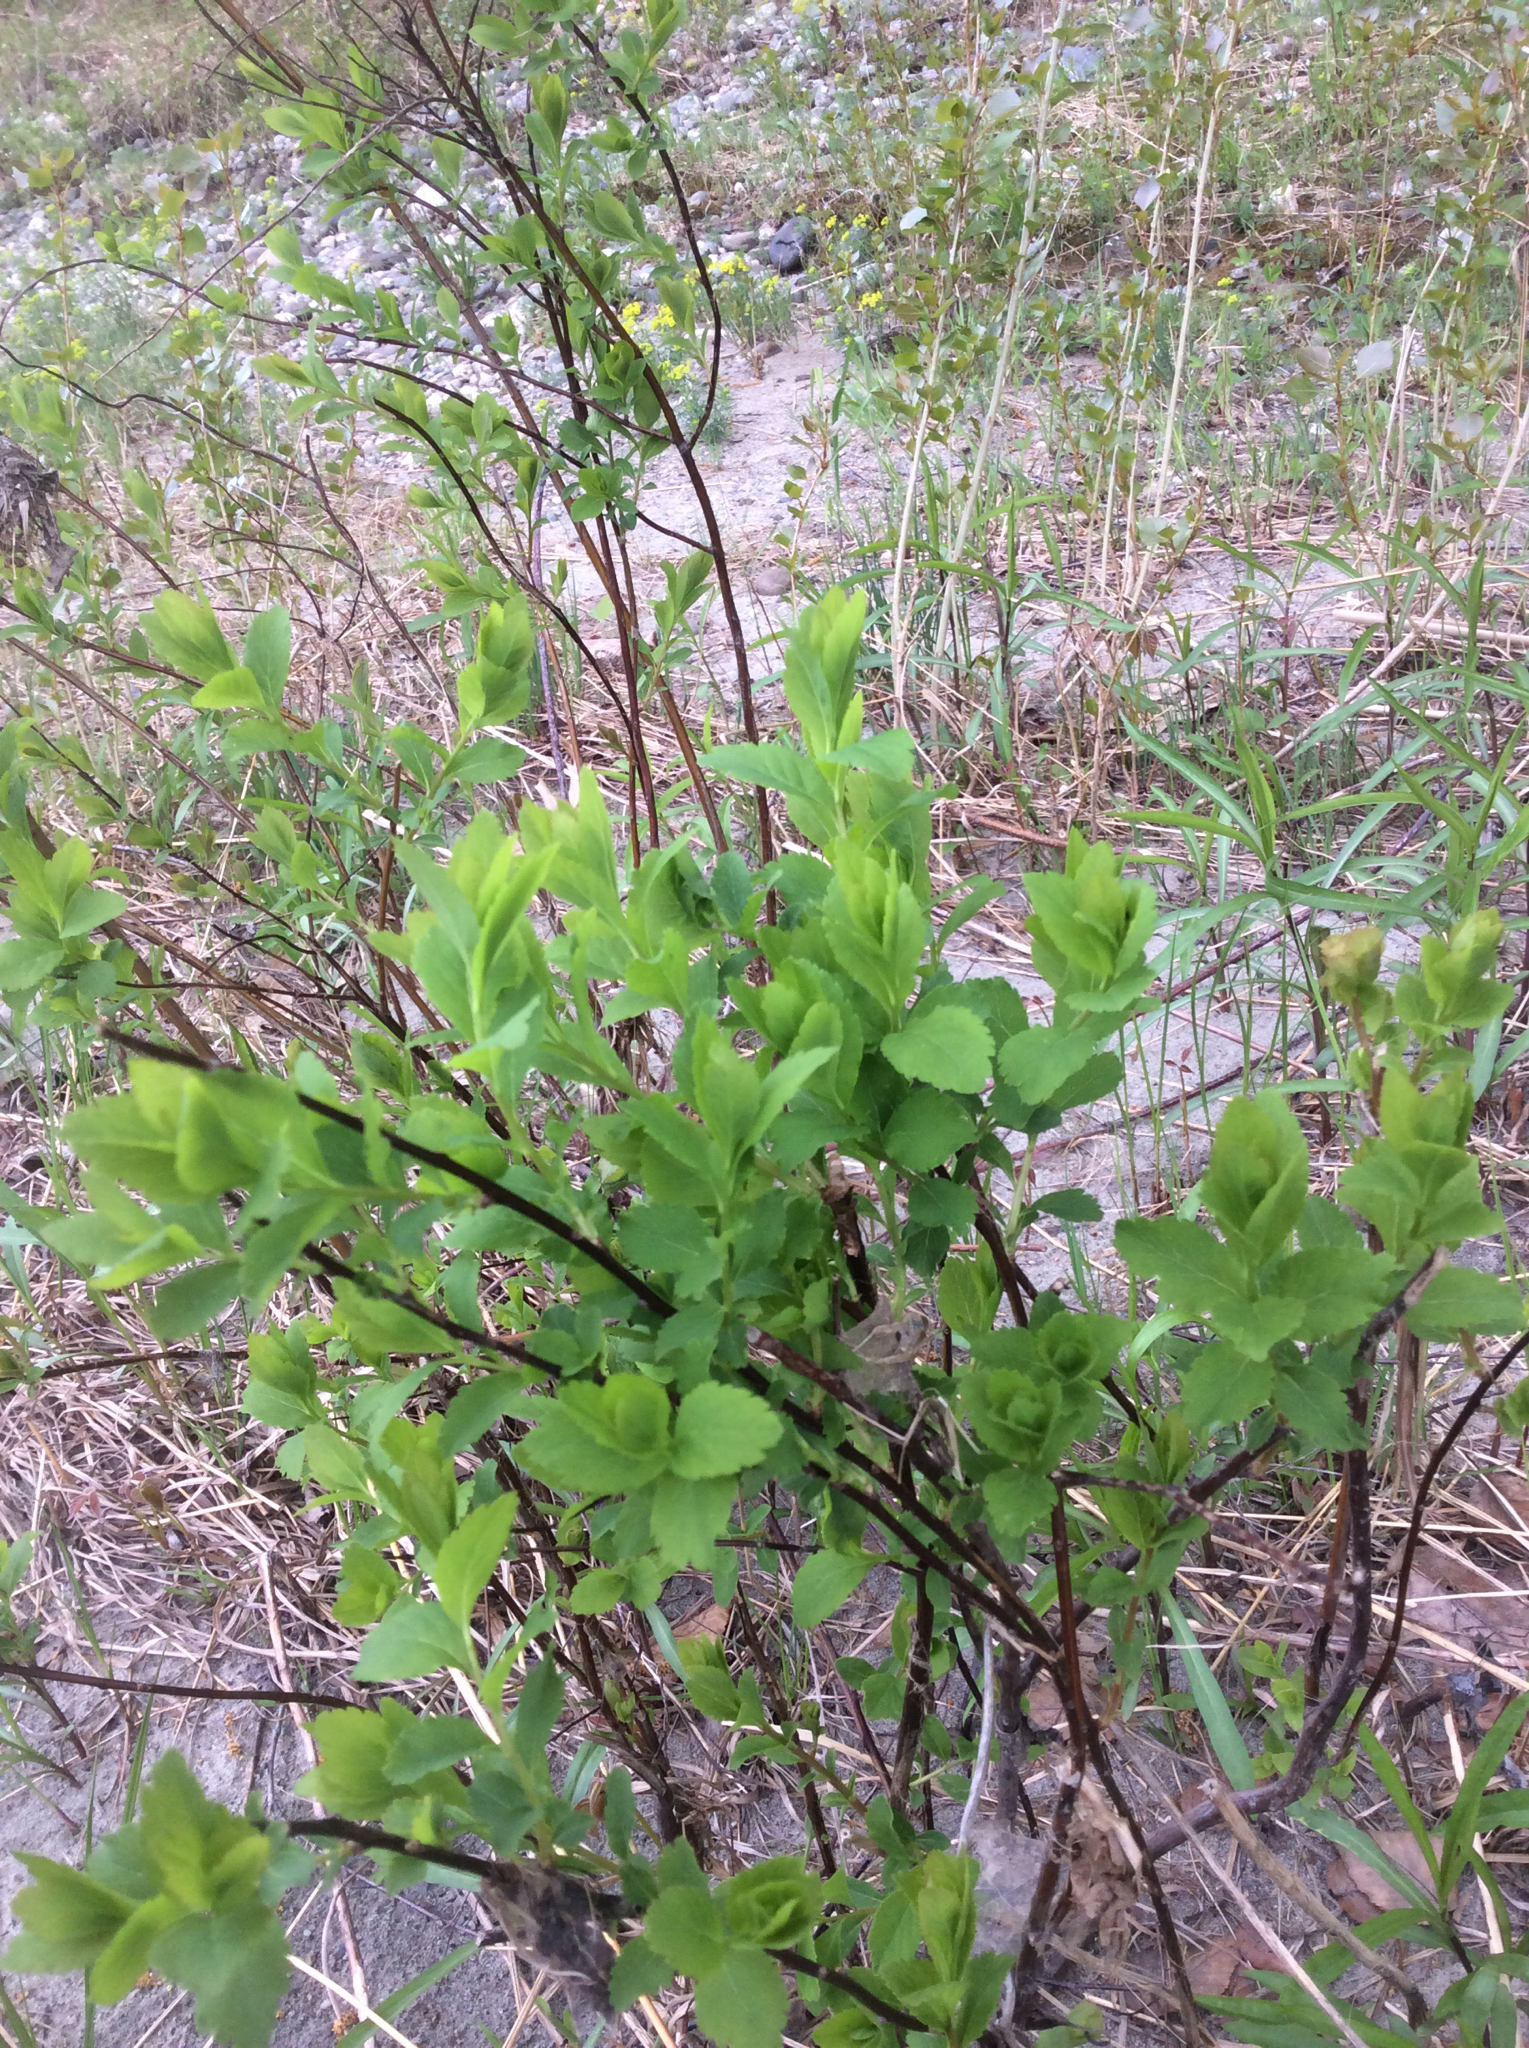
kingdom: Plantae
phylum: Tracheophyta
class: Magnoliopsida
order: Rosales
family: Rosaceae
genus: Spiraea
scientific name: Spiraea alba
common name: Pale bridewort
